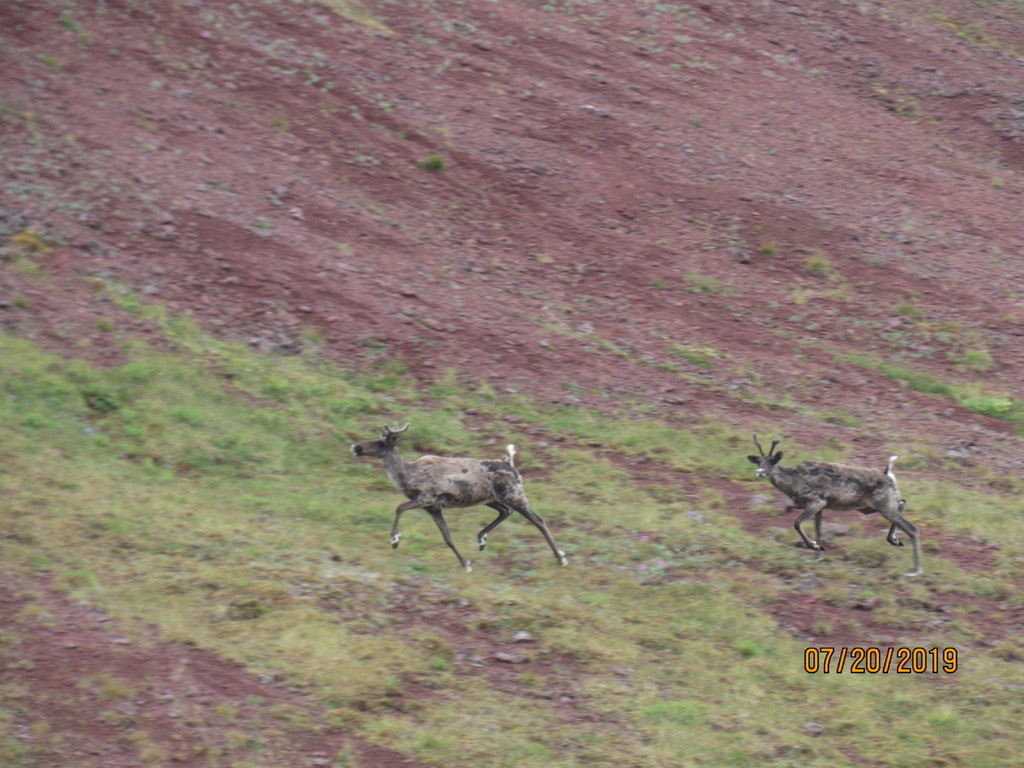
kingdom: Animalia
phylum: Chordata
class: Mammalia
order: Artiodactyla
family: Cervidae
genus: Rangifer
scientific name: Rangifer tarandus
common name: Reindeer
